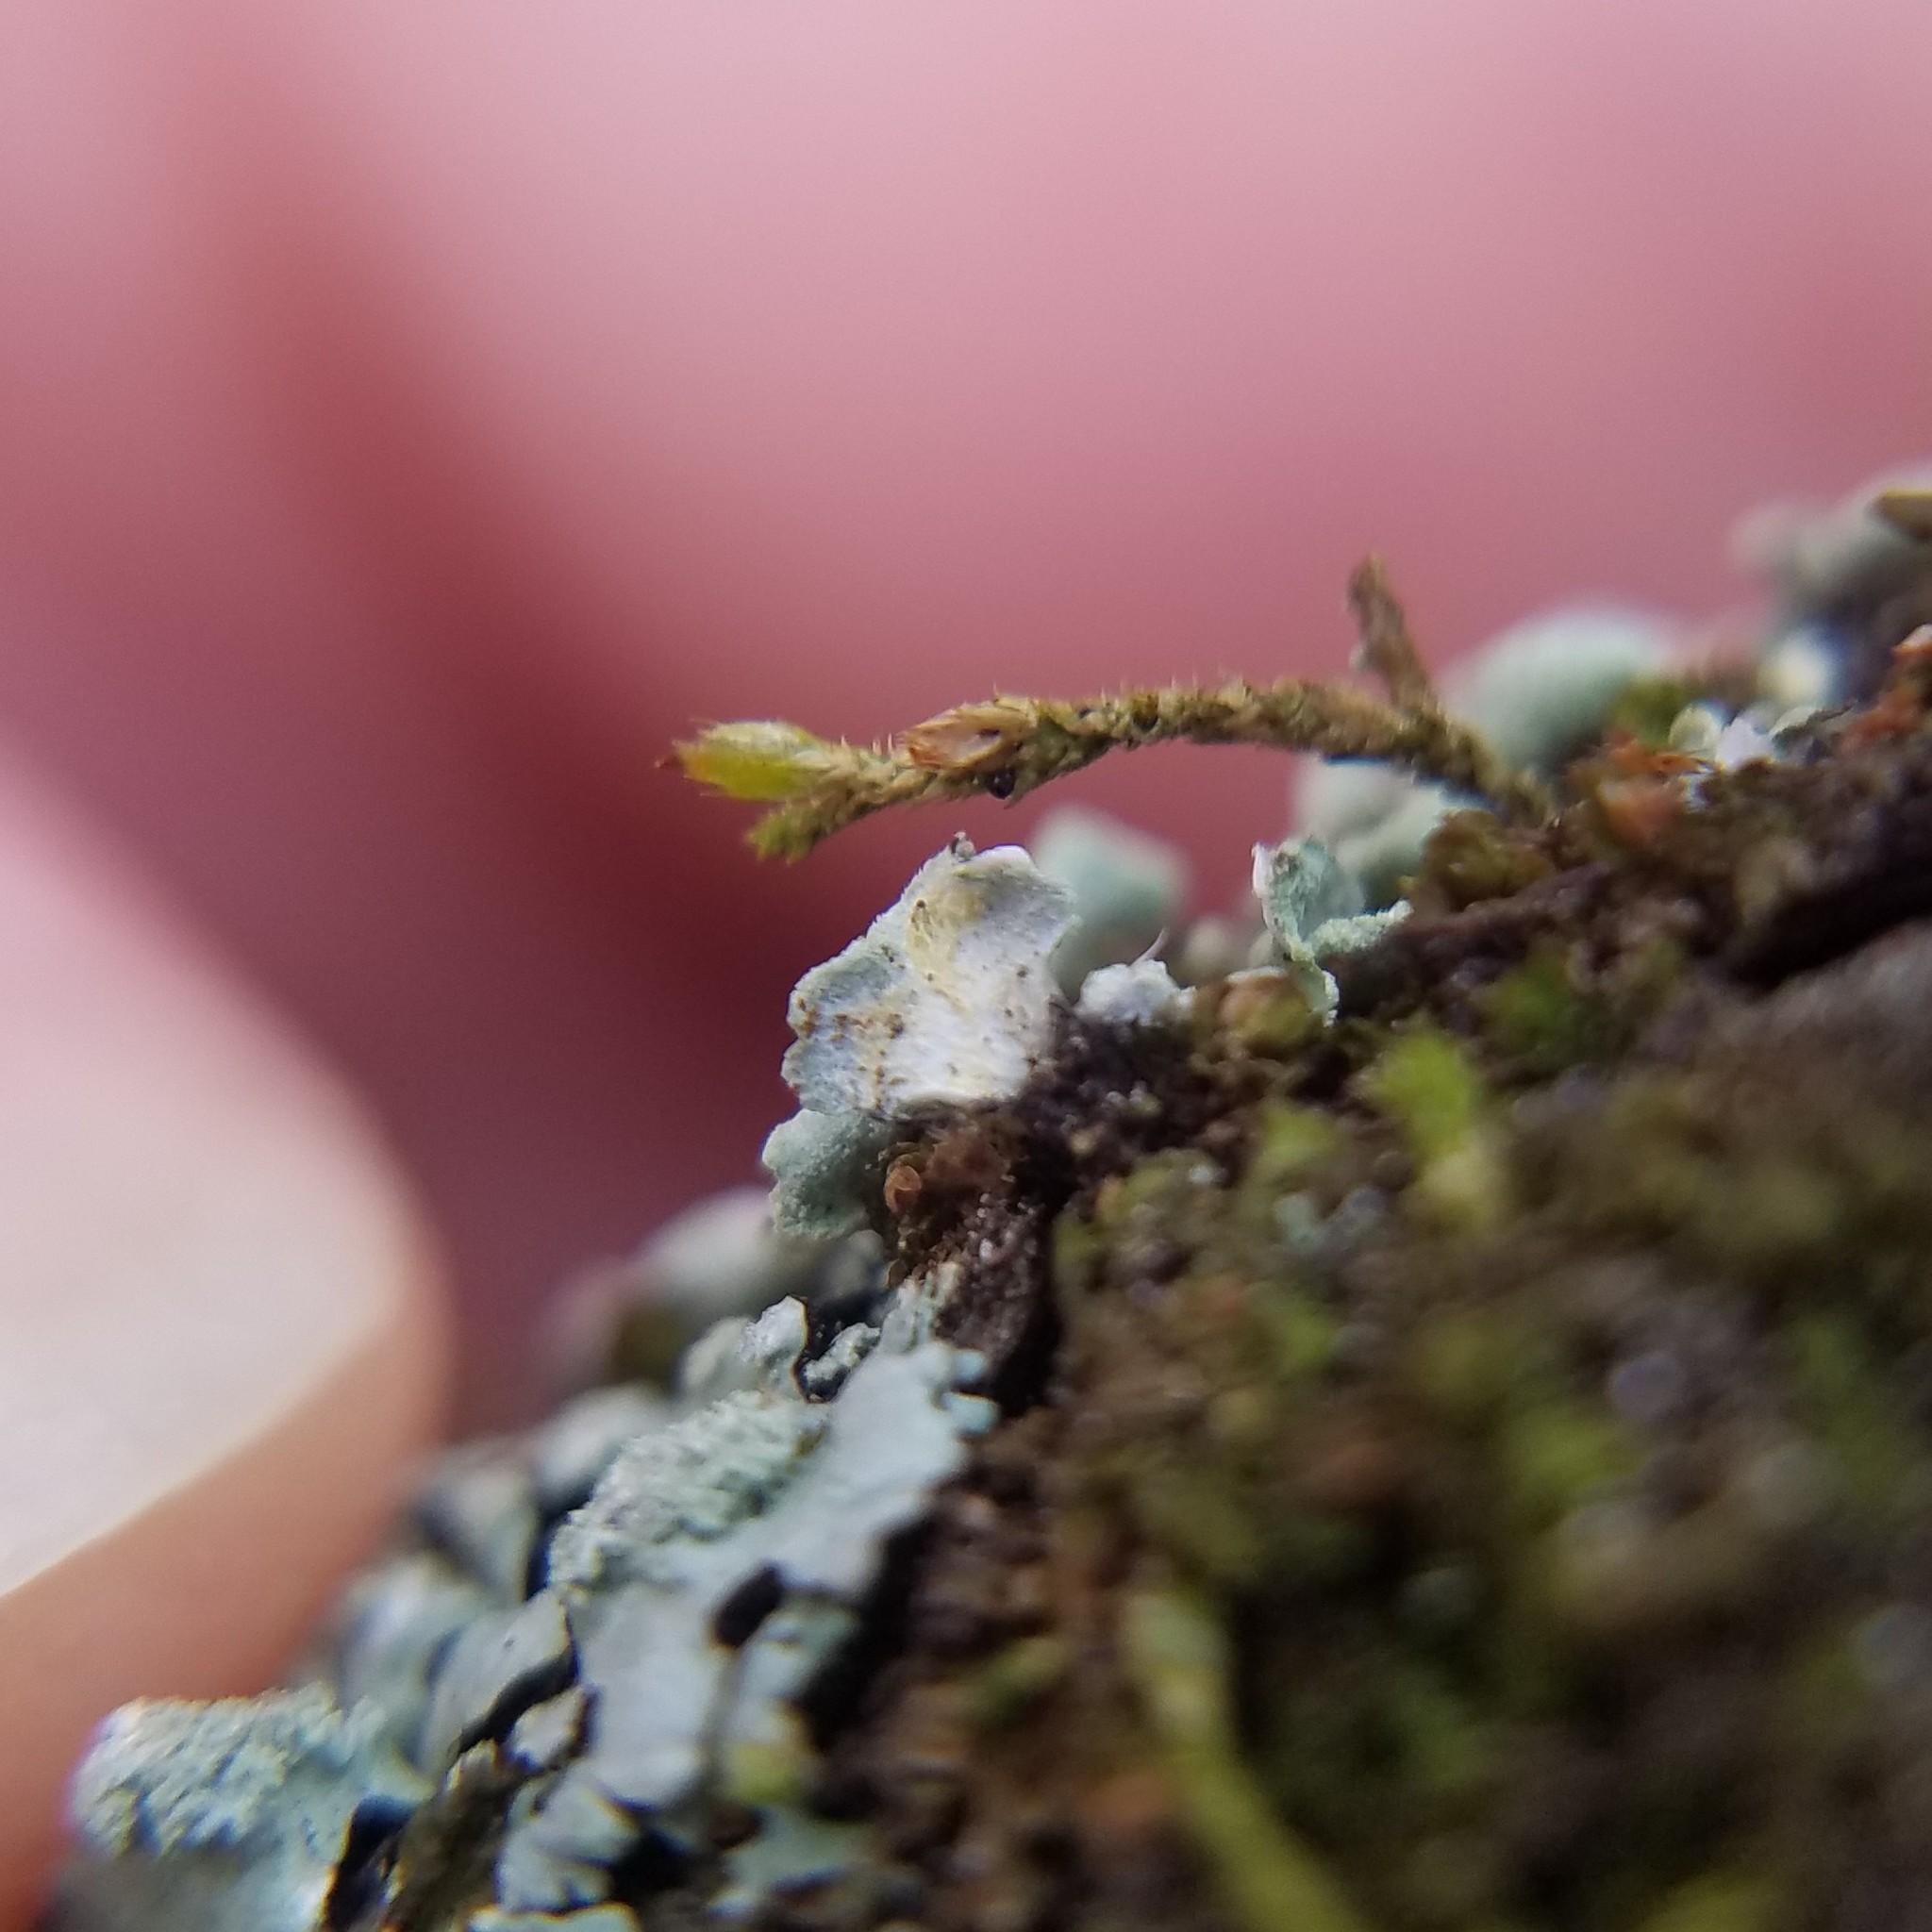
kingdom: Fungi
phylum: Ascomycota
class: Lecanoromycetes
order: Caliciales
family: Physciaceae
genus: Heterodermia
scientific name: Heterodermia obscurata
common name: Coralloid rosette-lichen
